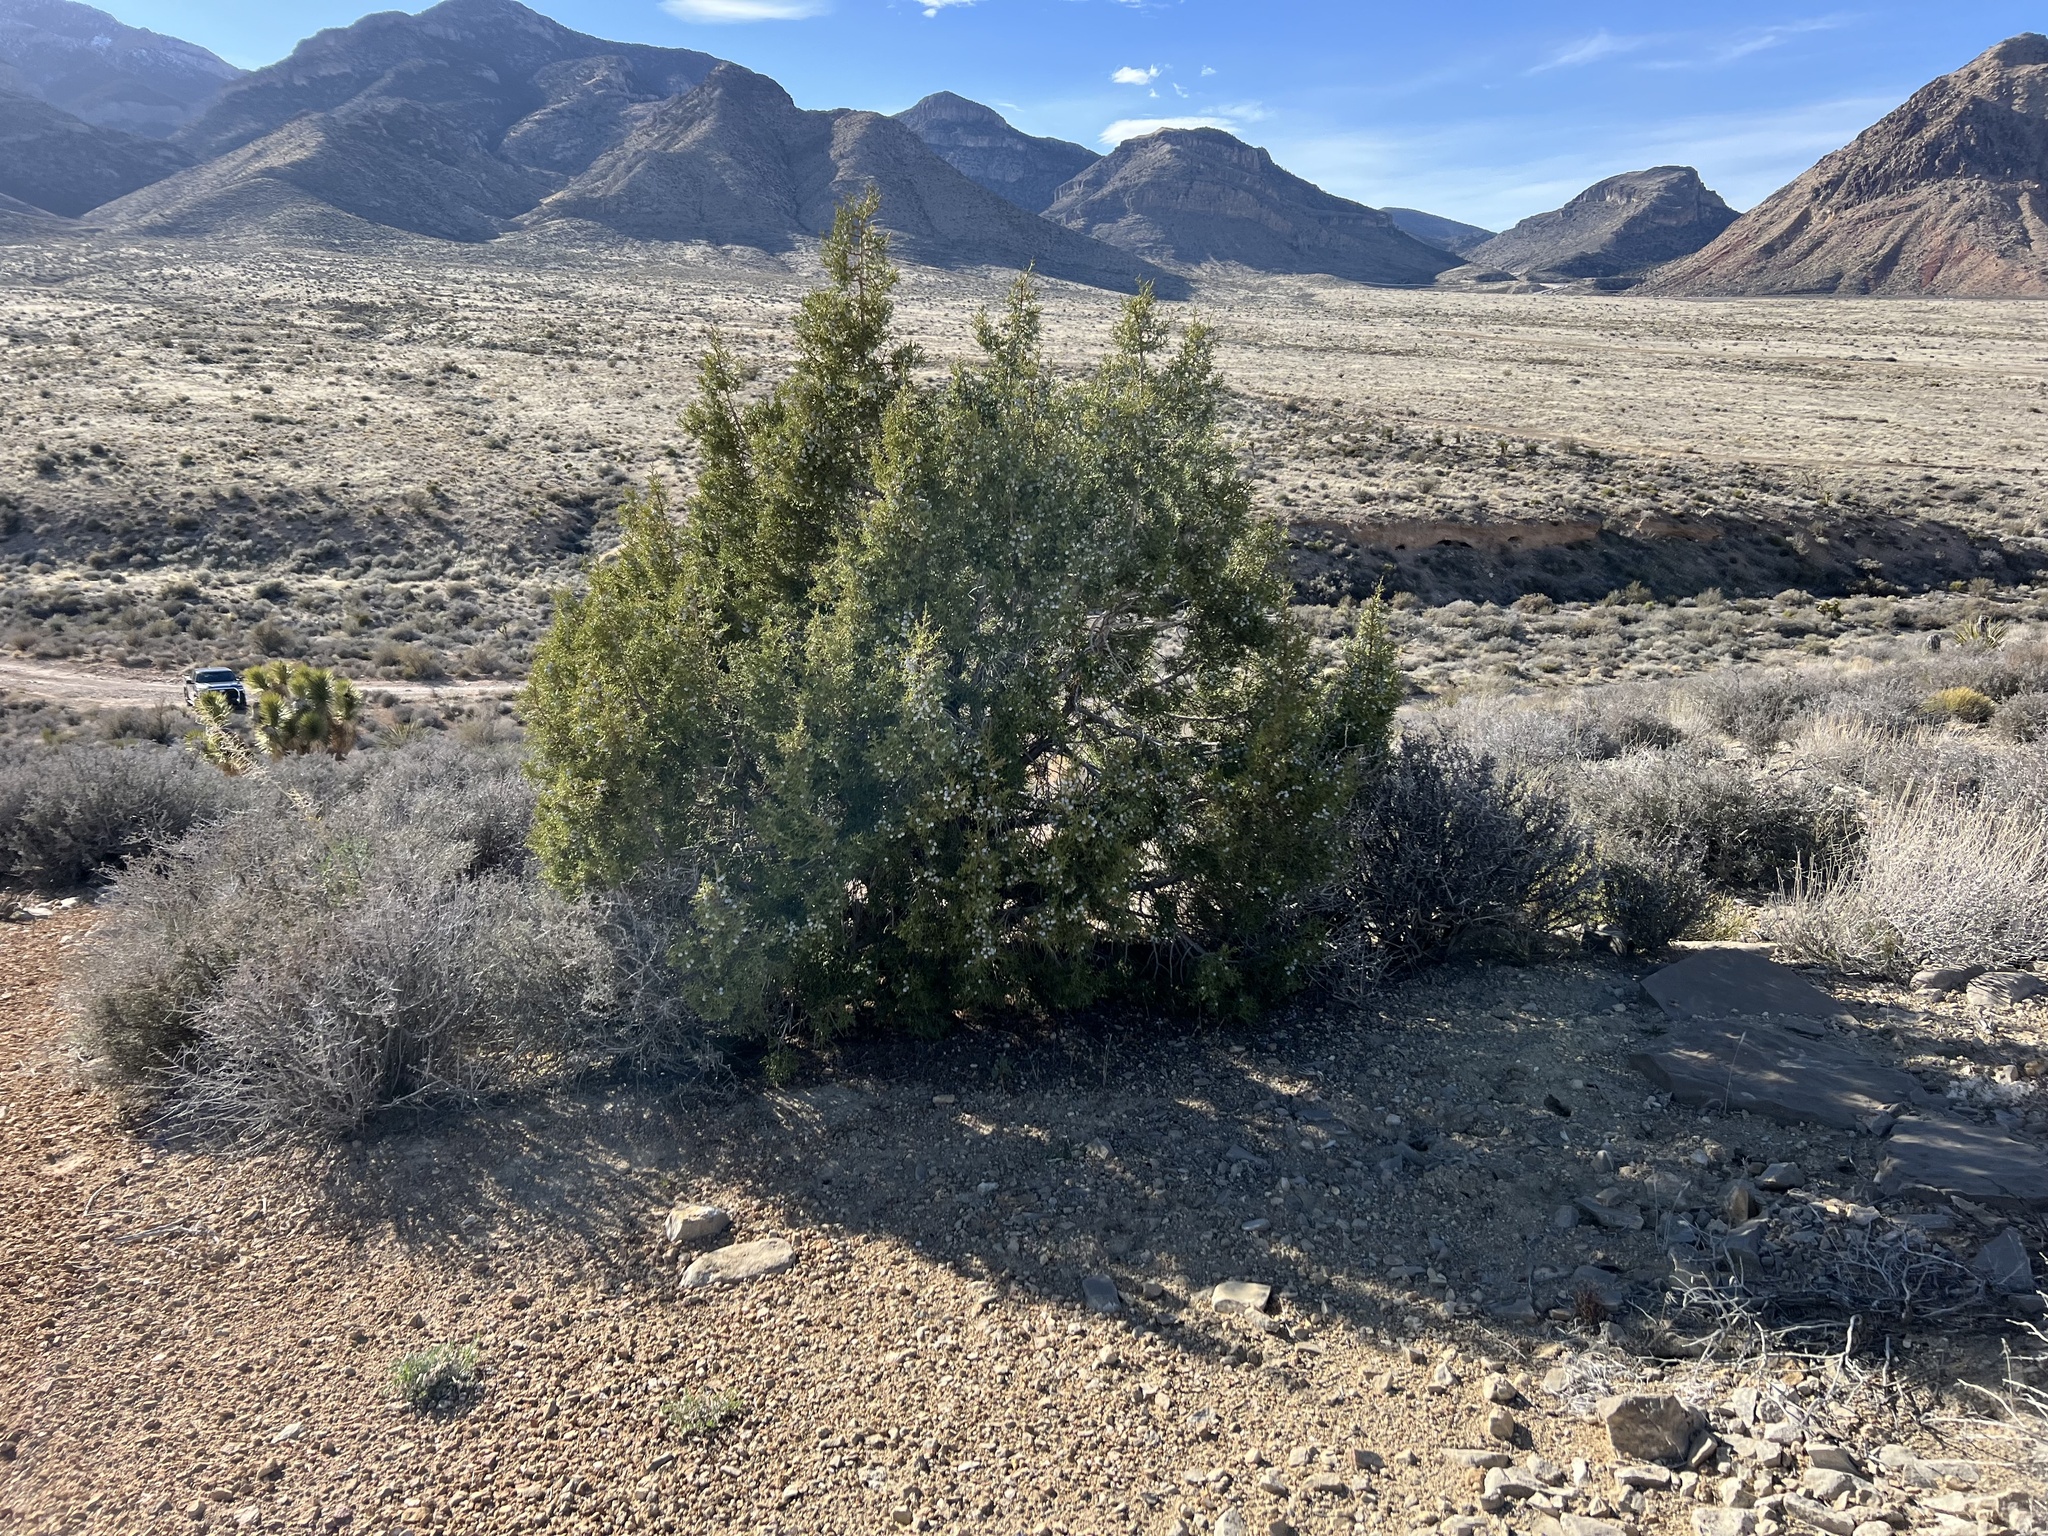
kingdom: Plantae
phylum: Tracheophyta
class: Pinopsida
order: Pinales
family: Cupressaceae
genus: Juniperus
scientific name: Juniperus osteosperma
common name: Utah juniper
